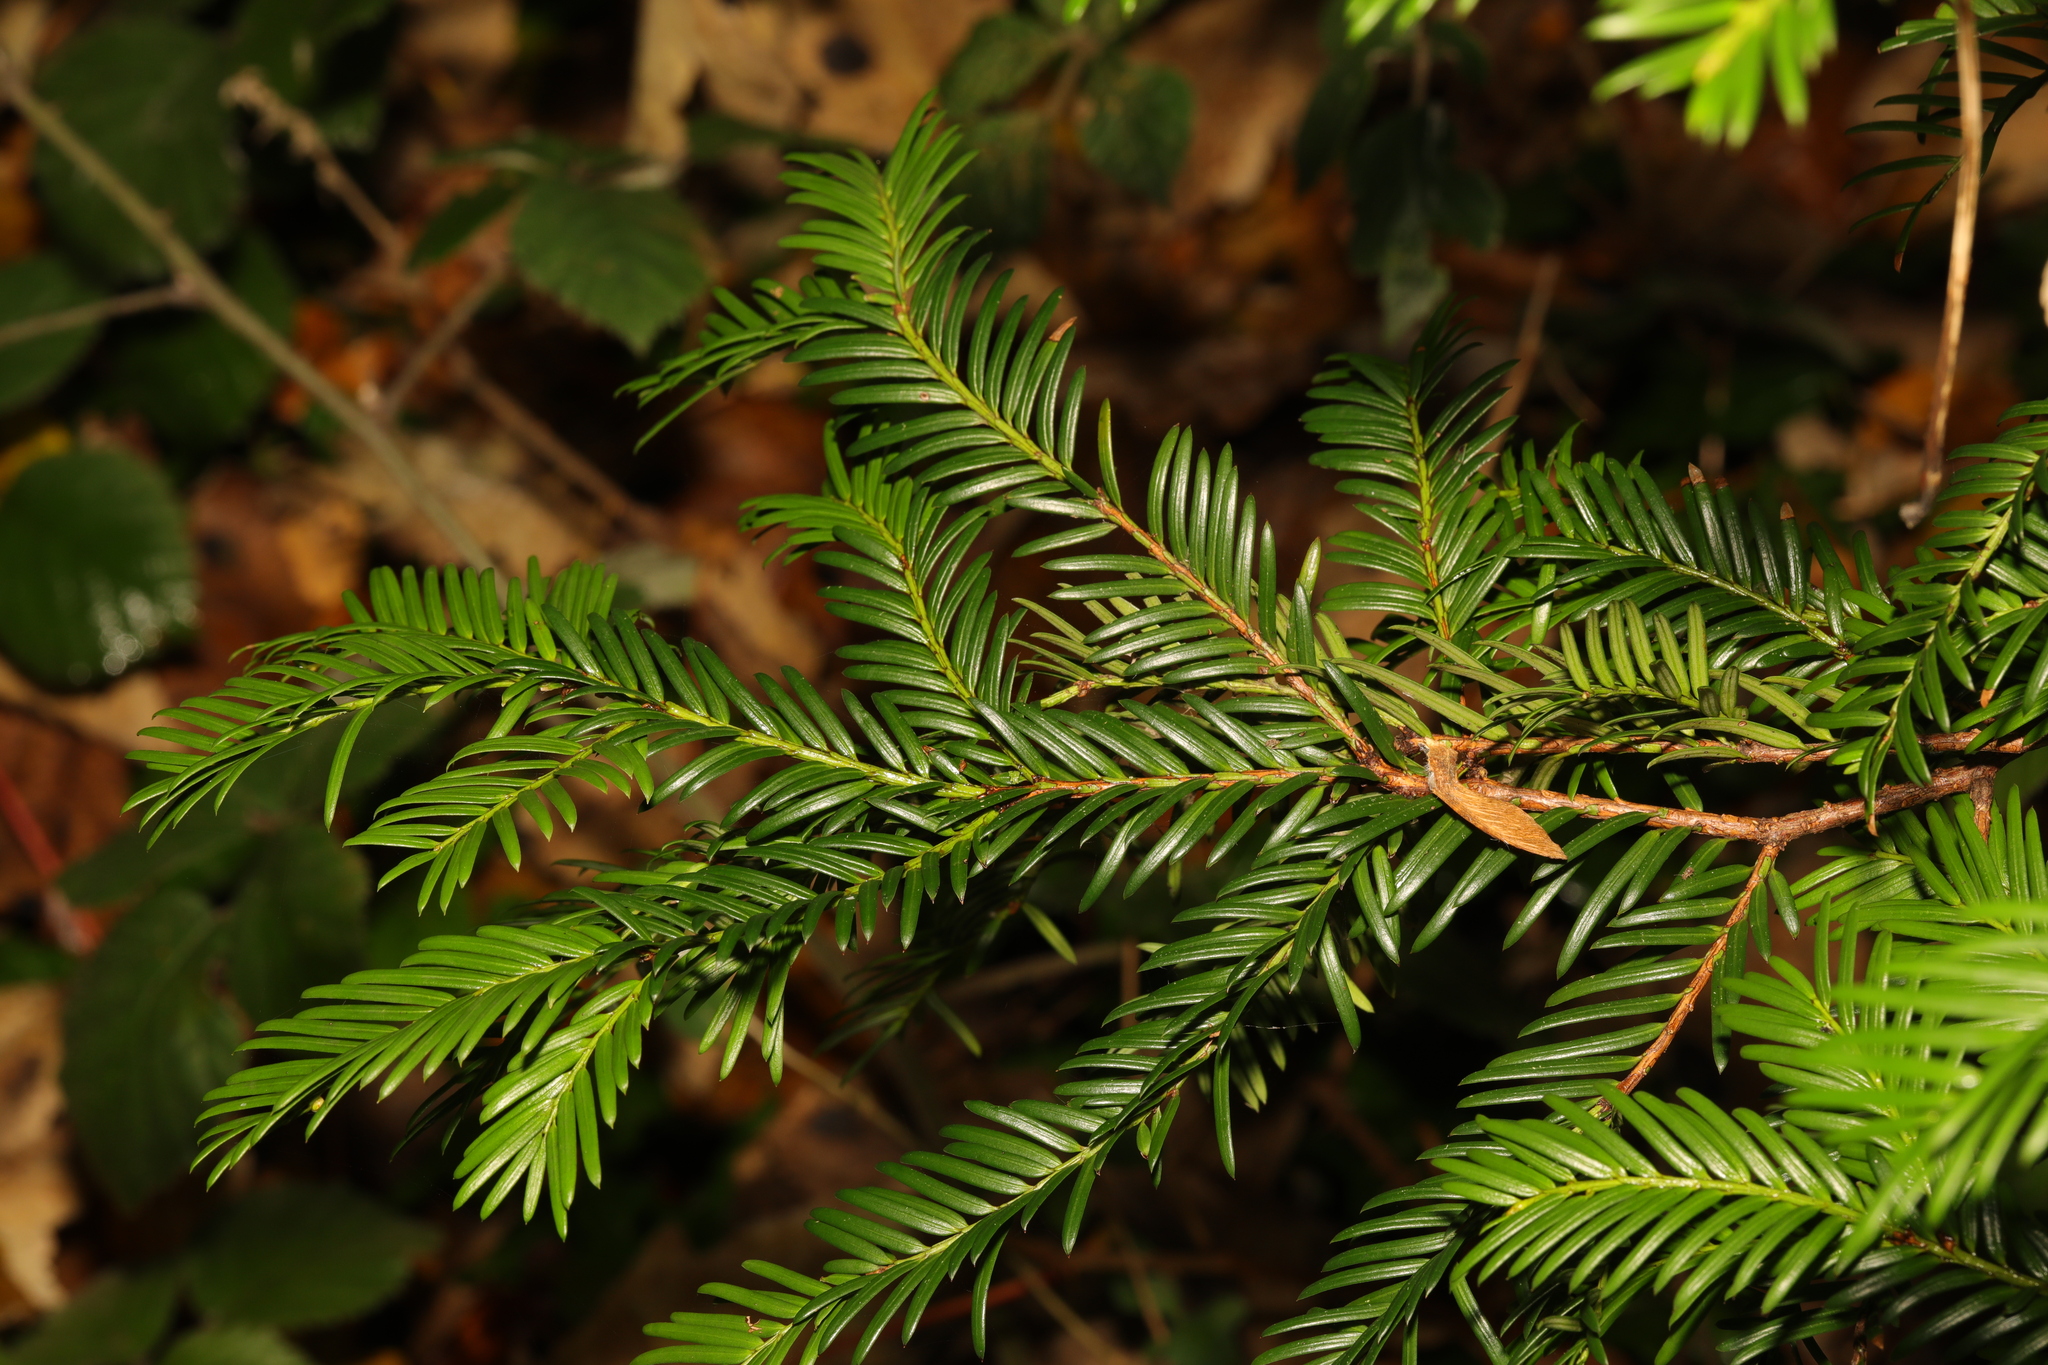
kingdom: Plantae
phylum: Tracheophyta
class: Pinopsida
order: Pinales
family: Taxaceae
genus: Taxus
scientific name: Taxus baccata
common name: Yew
